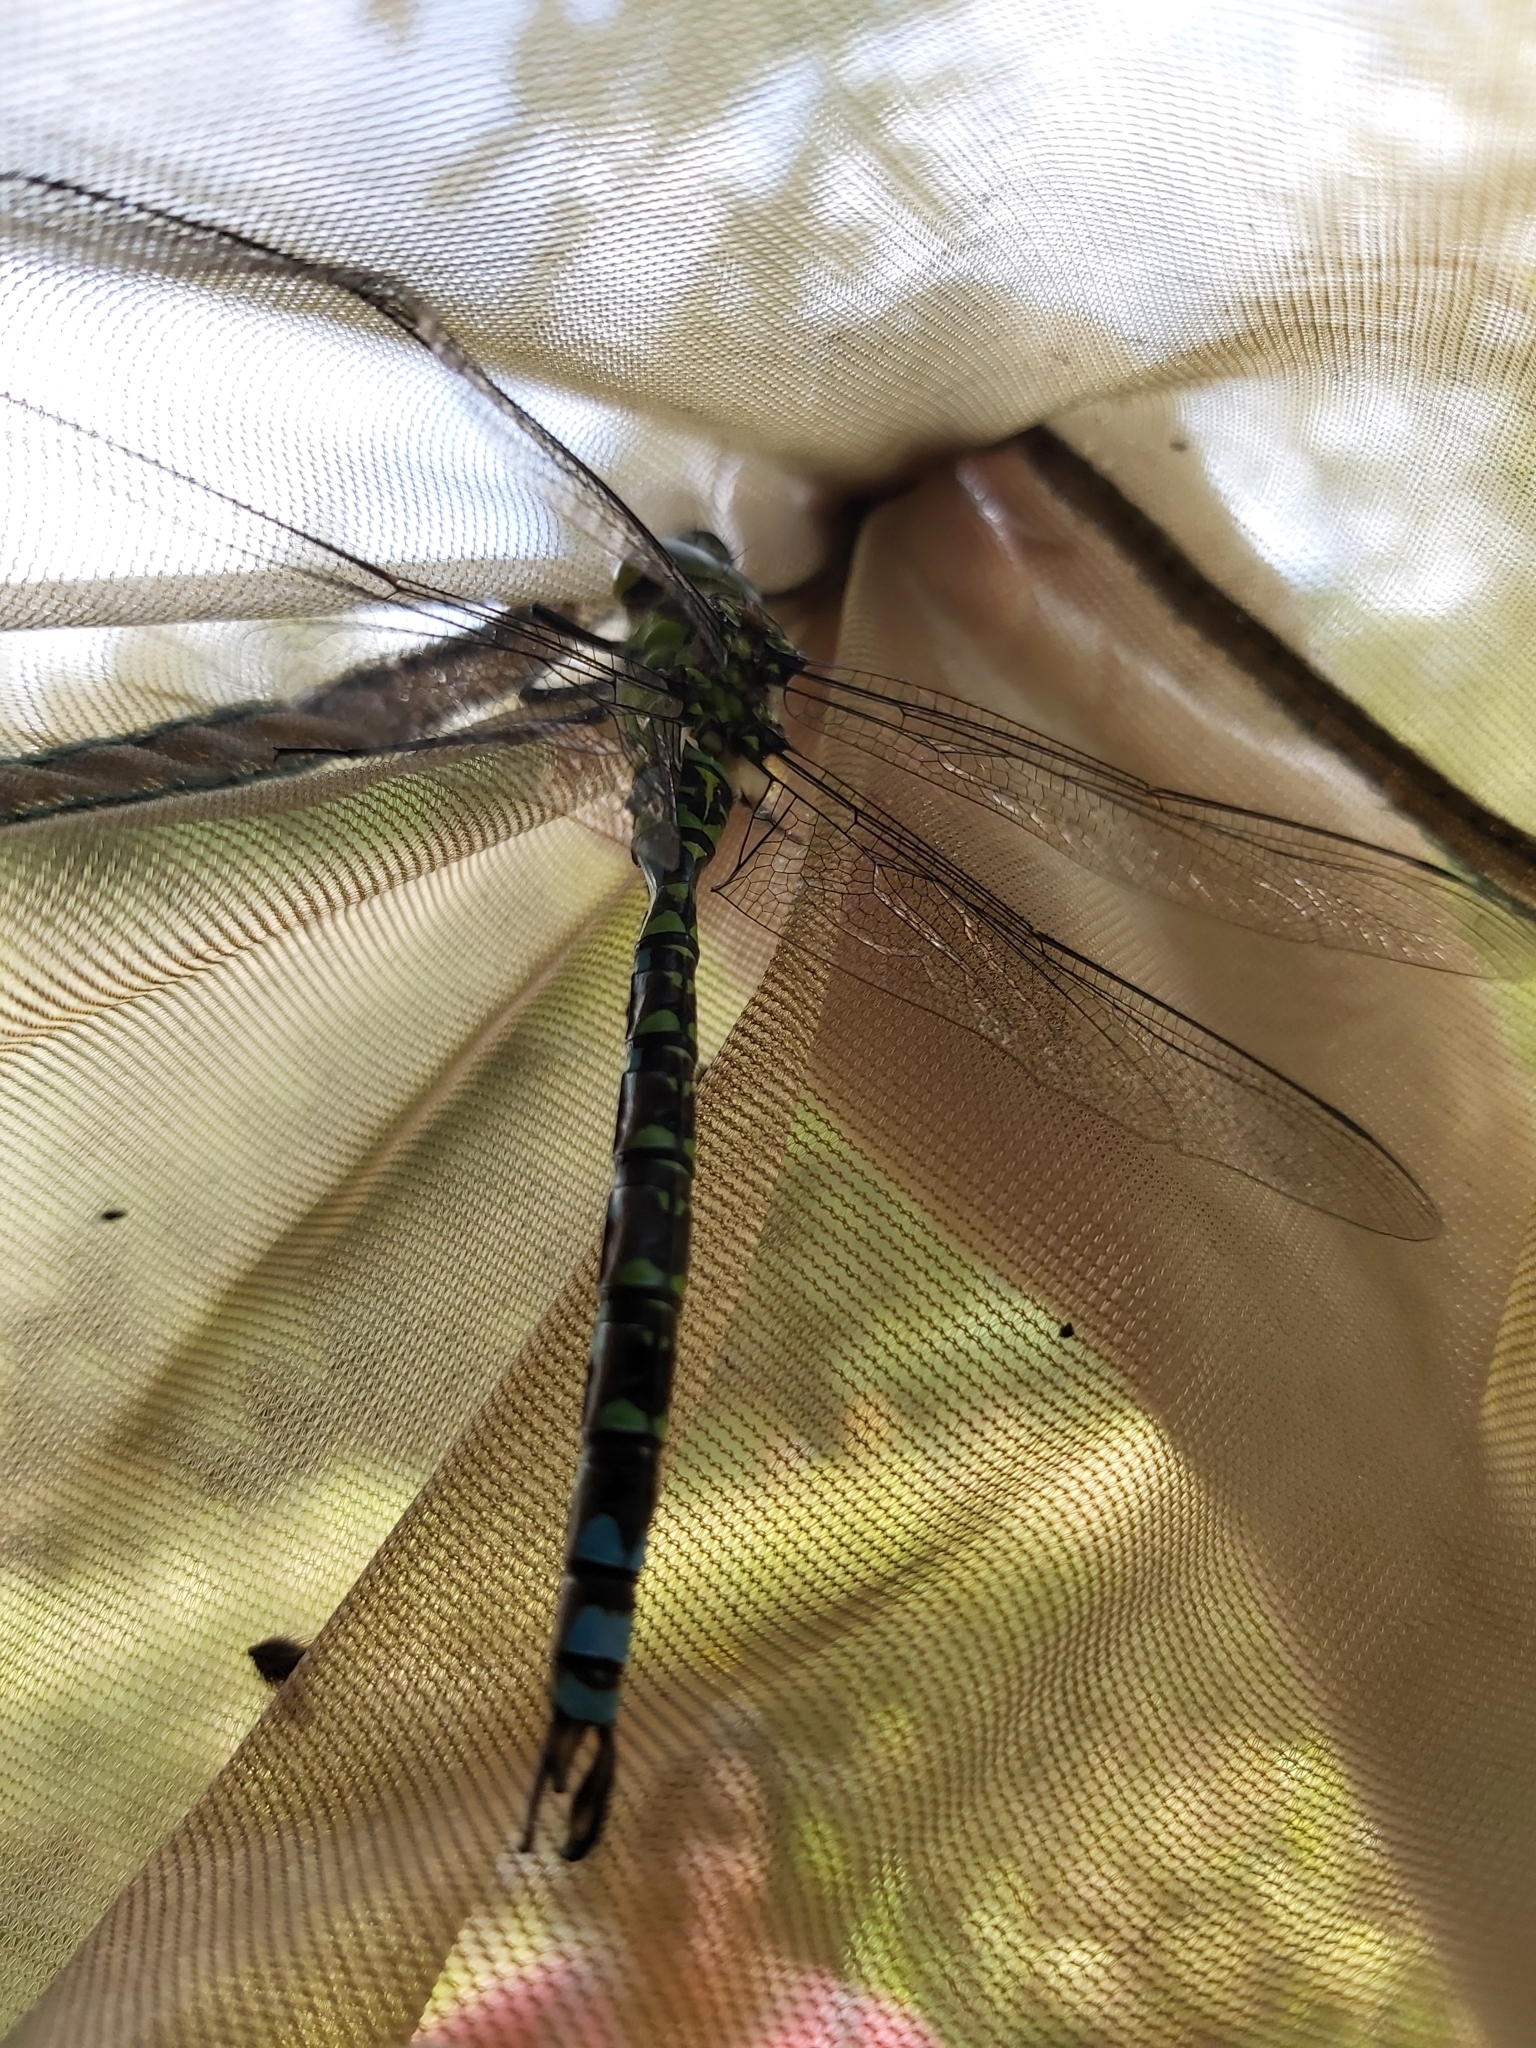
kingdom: Animalia
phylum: Arthropoda
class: Insecta
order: Odonata
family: Aeshnidae
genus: Aeshna
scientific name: Aeshna cyanea
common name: Southern hawker
